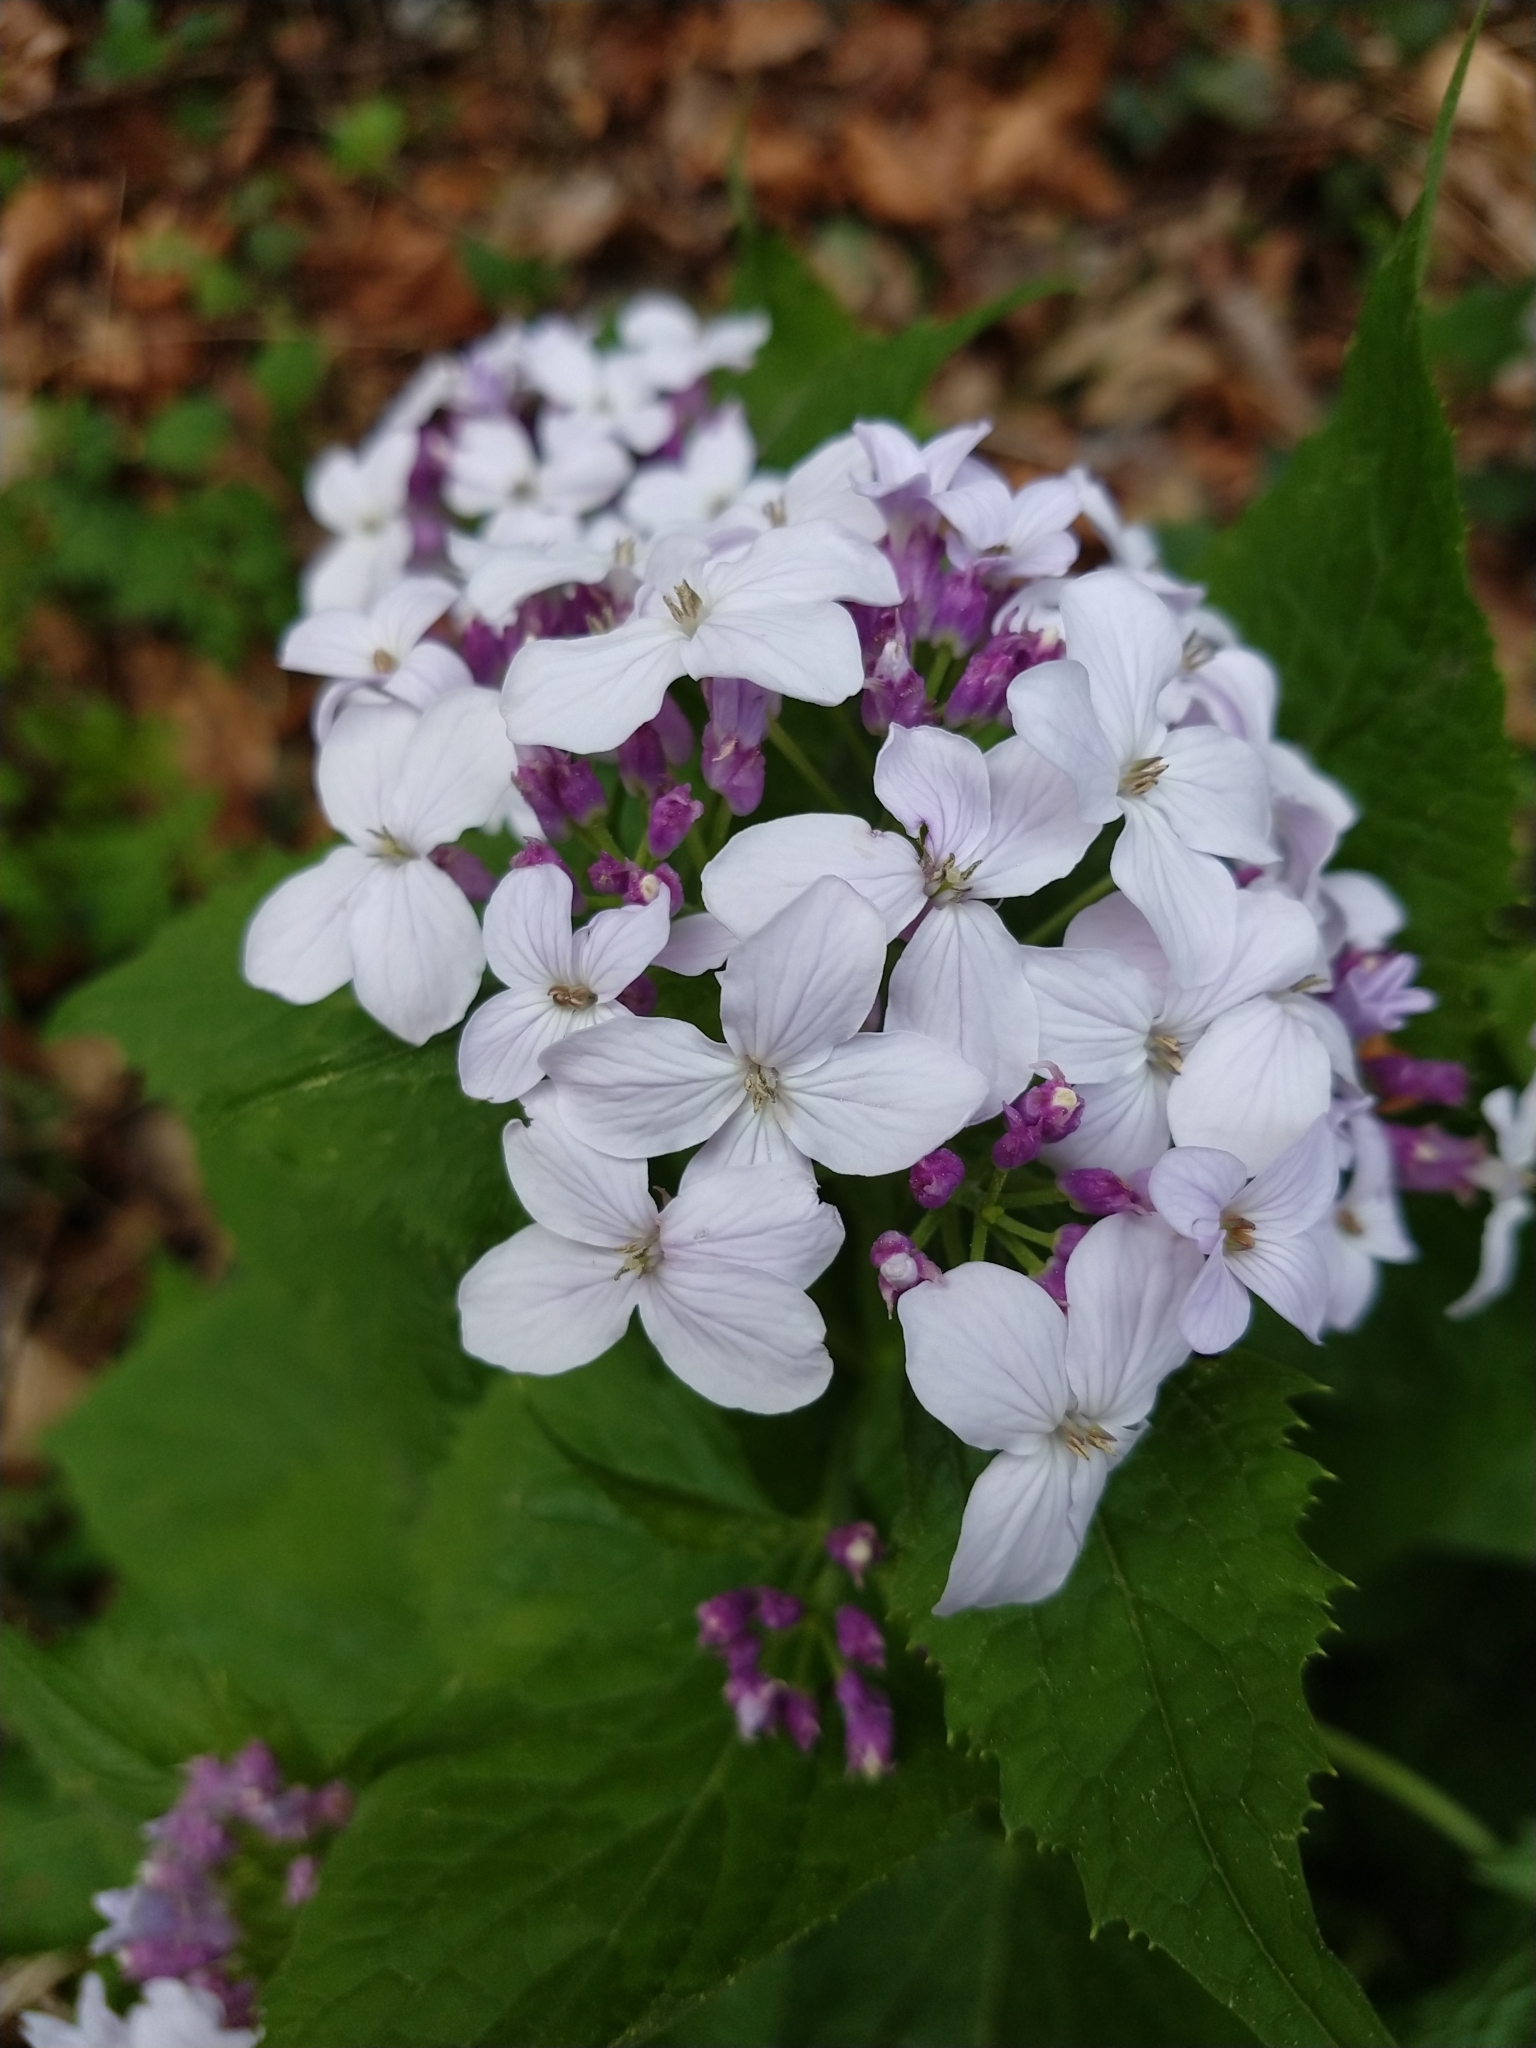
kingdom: Plantae
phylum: Tracheophyta
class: Magnoliopsida
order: Brassicales
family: Brassicaceae
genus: Lunaria
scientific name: Lunaria rediviva
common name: Perennial honesty
